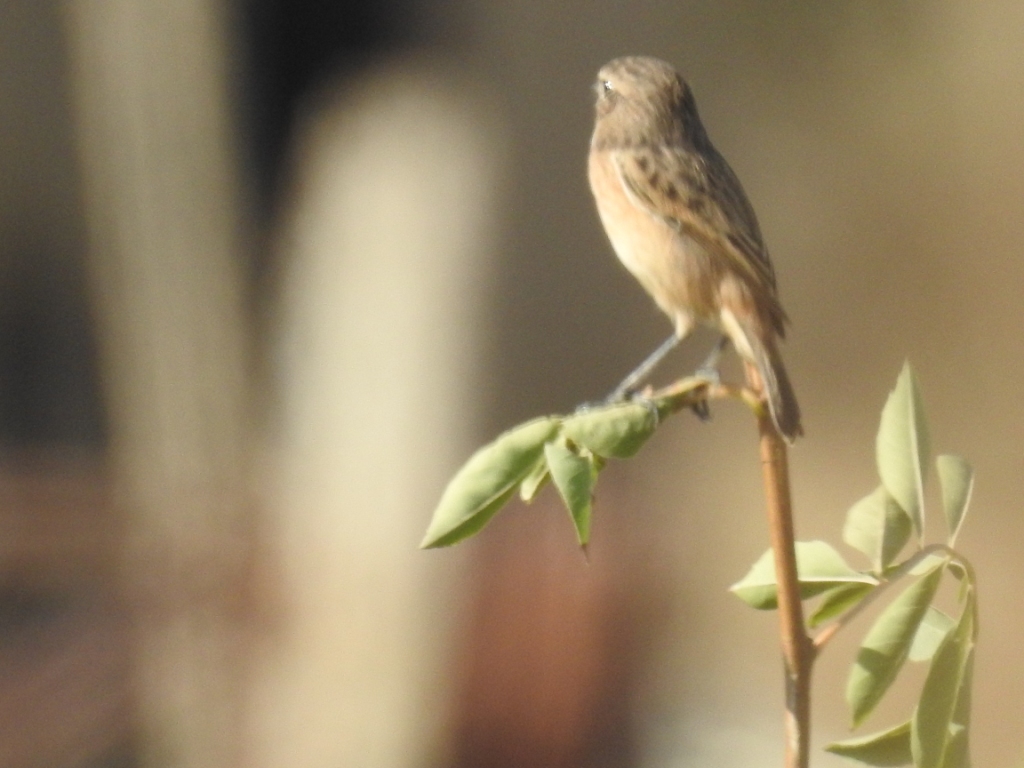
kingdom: Animalia
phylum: Chordata
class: Aves
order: Passeriformes
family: Muscicapidae
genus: Saxicola
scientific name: Saxicola rubicola
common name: European stonechat
